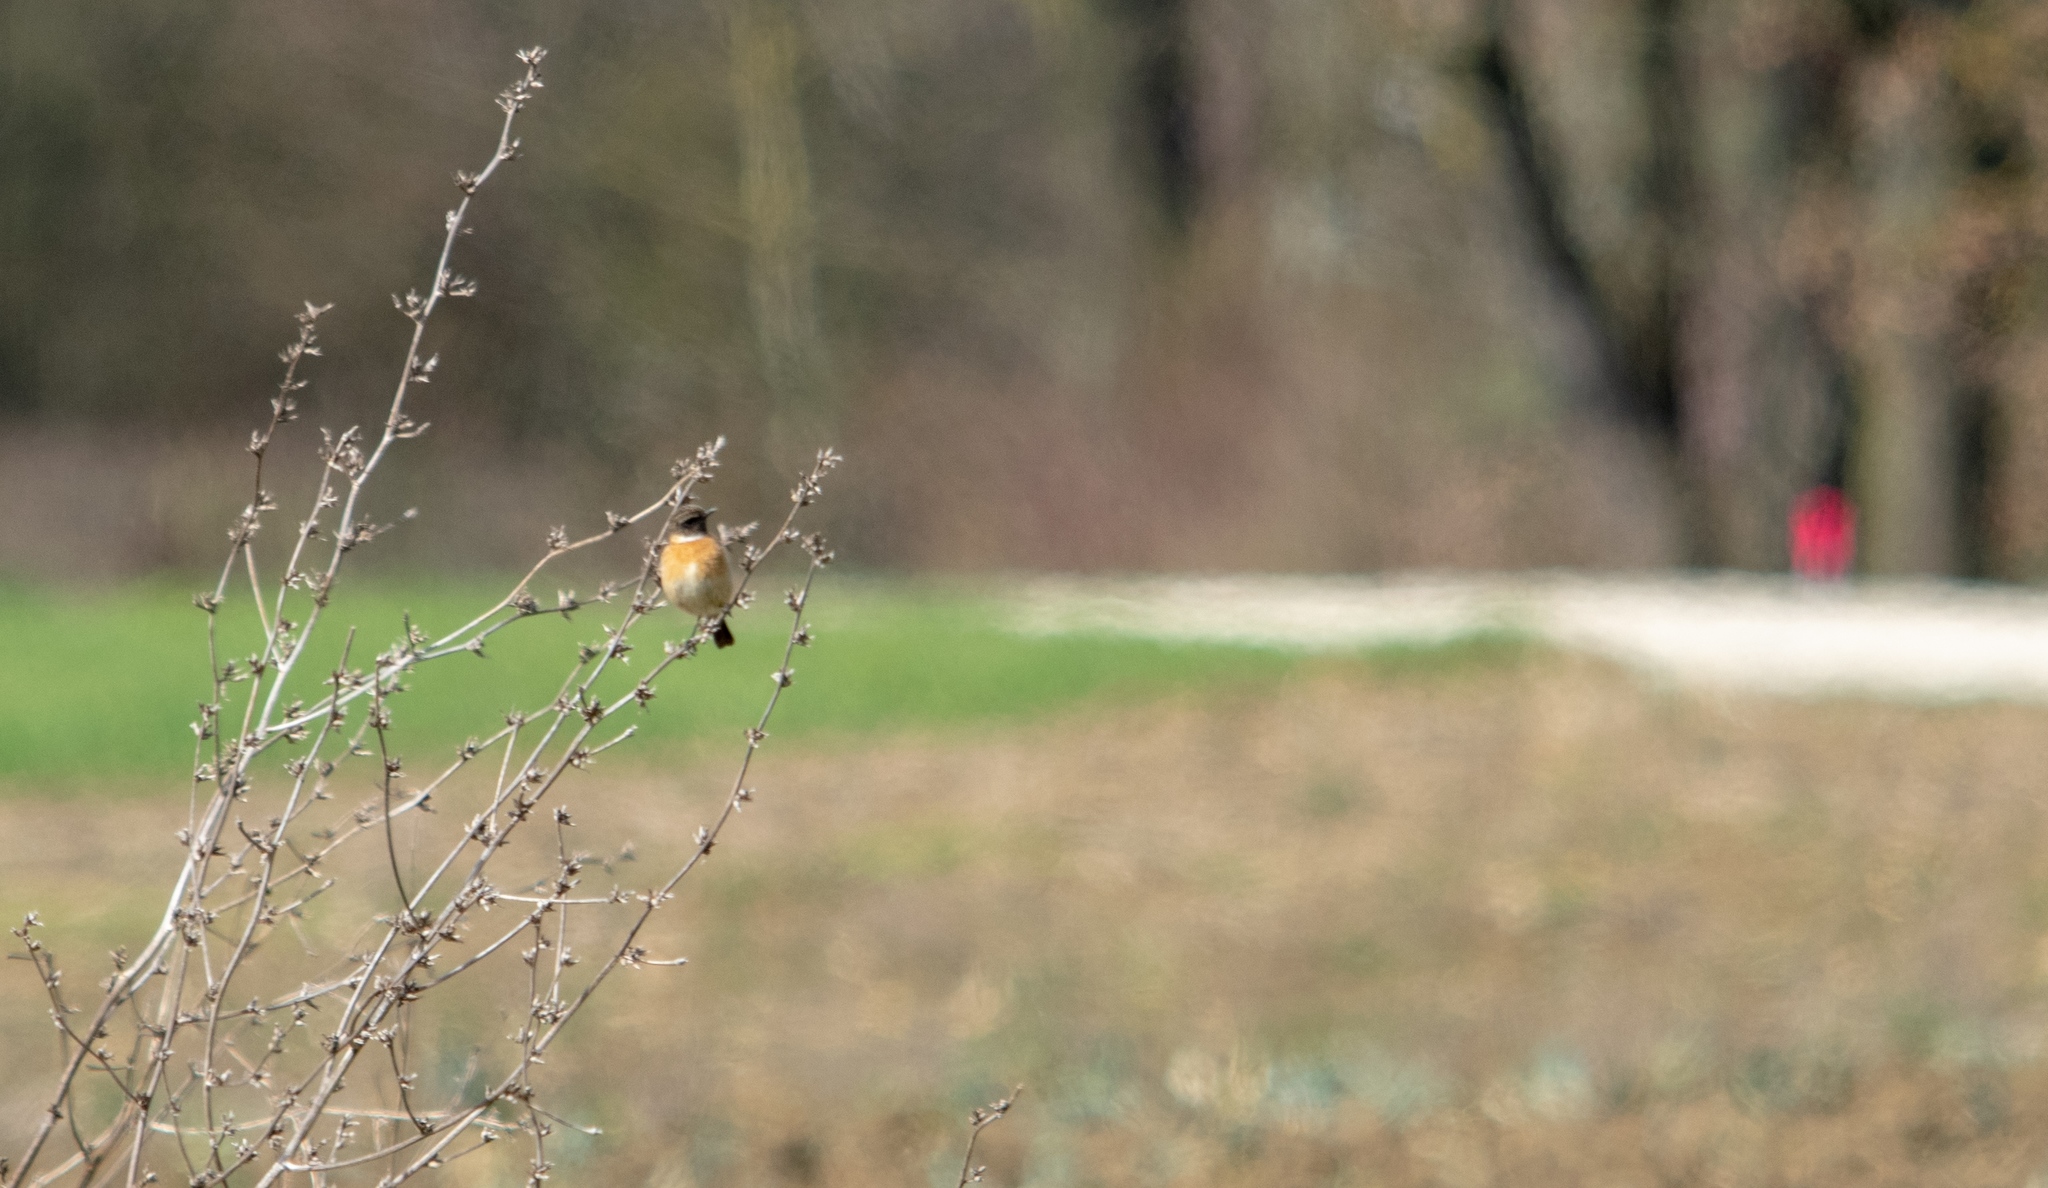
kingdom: Animalia
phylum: Chordata
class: Aves
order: Passeriformes
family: Muscicapidae
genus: Saxicola
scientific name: Saxicola rubicola
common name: European stonechat
